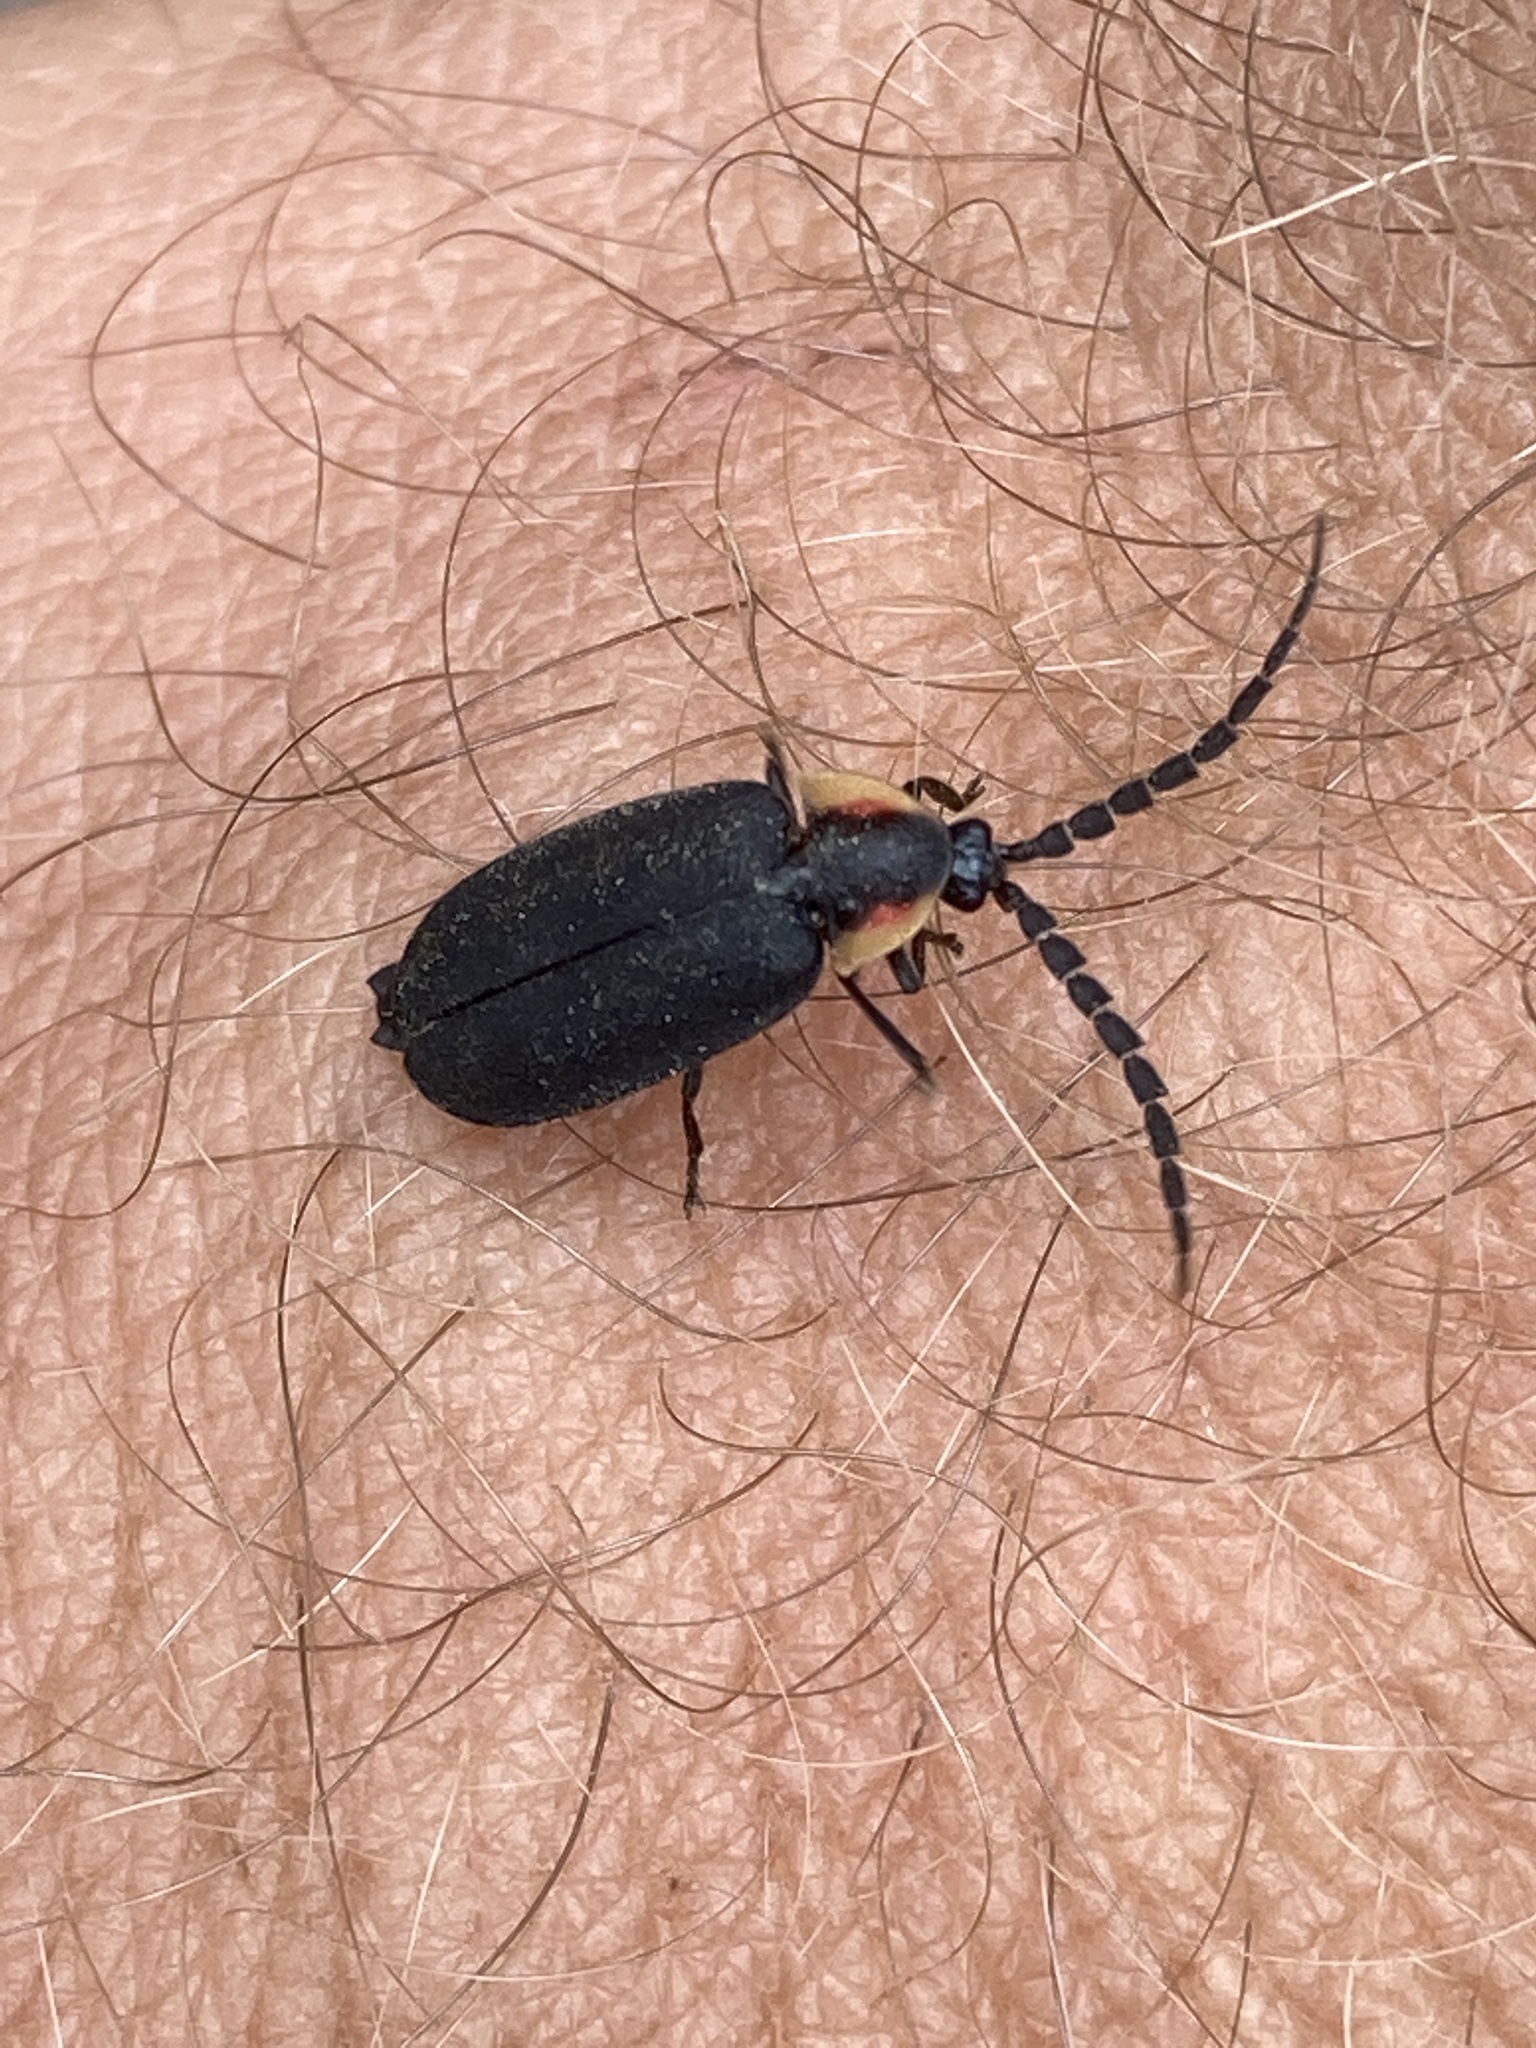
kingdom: Animalia
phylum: Arthropoda
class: Insecta
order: Coleoptera
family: Lampyridae
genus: Lucidota
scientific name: Lucidota atra
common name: Black firefly
